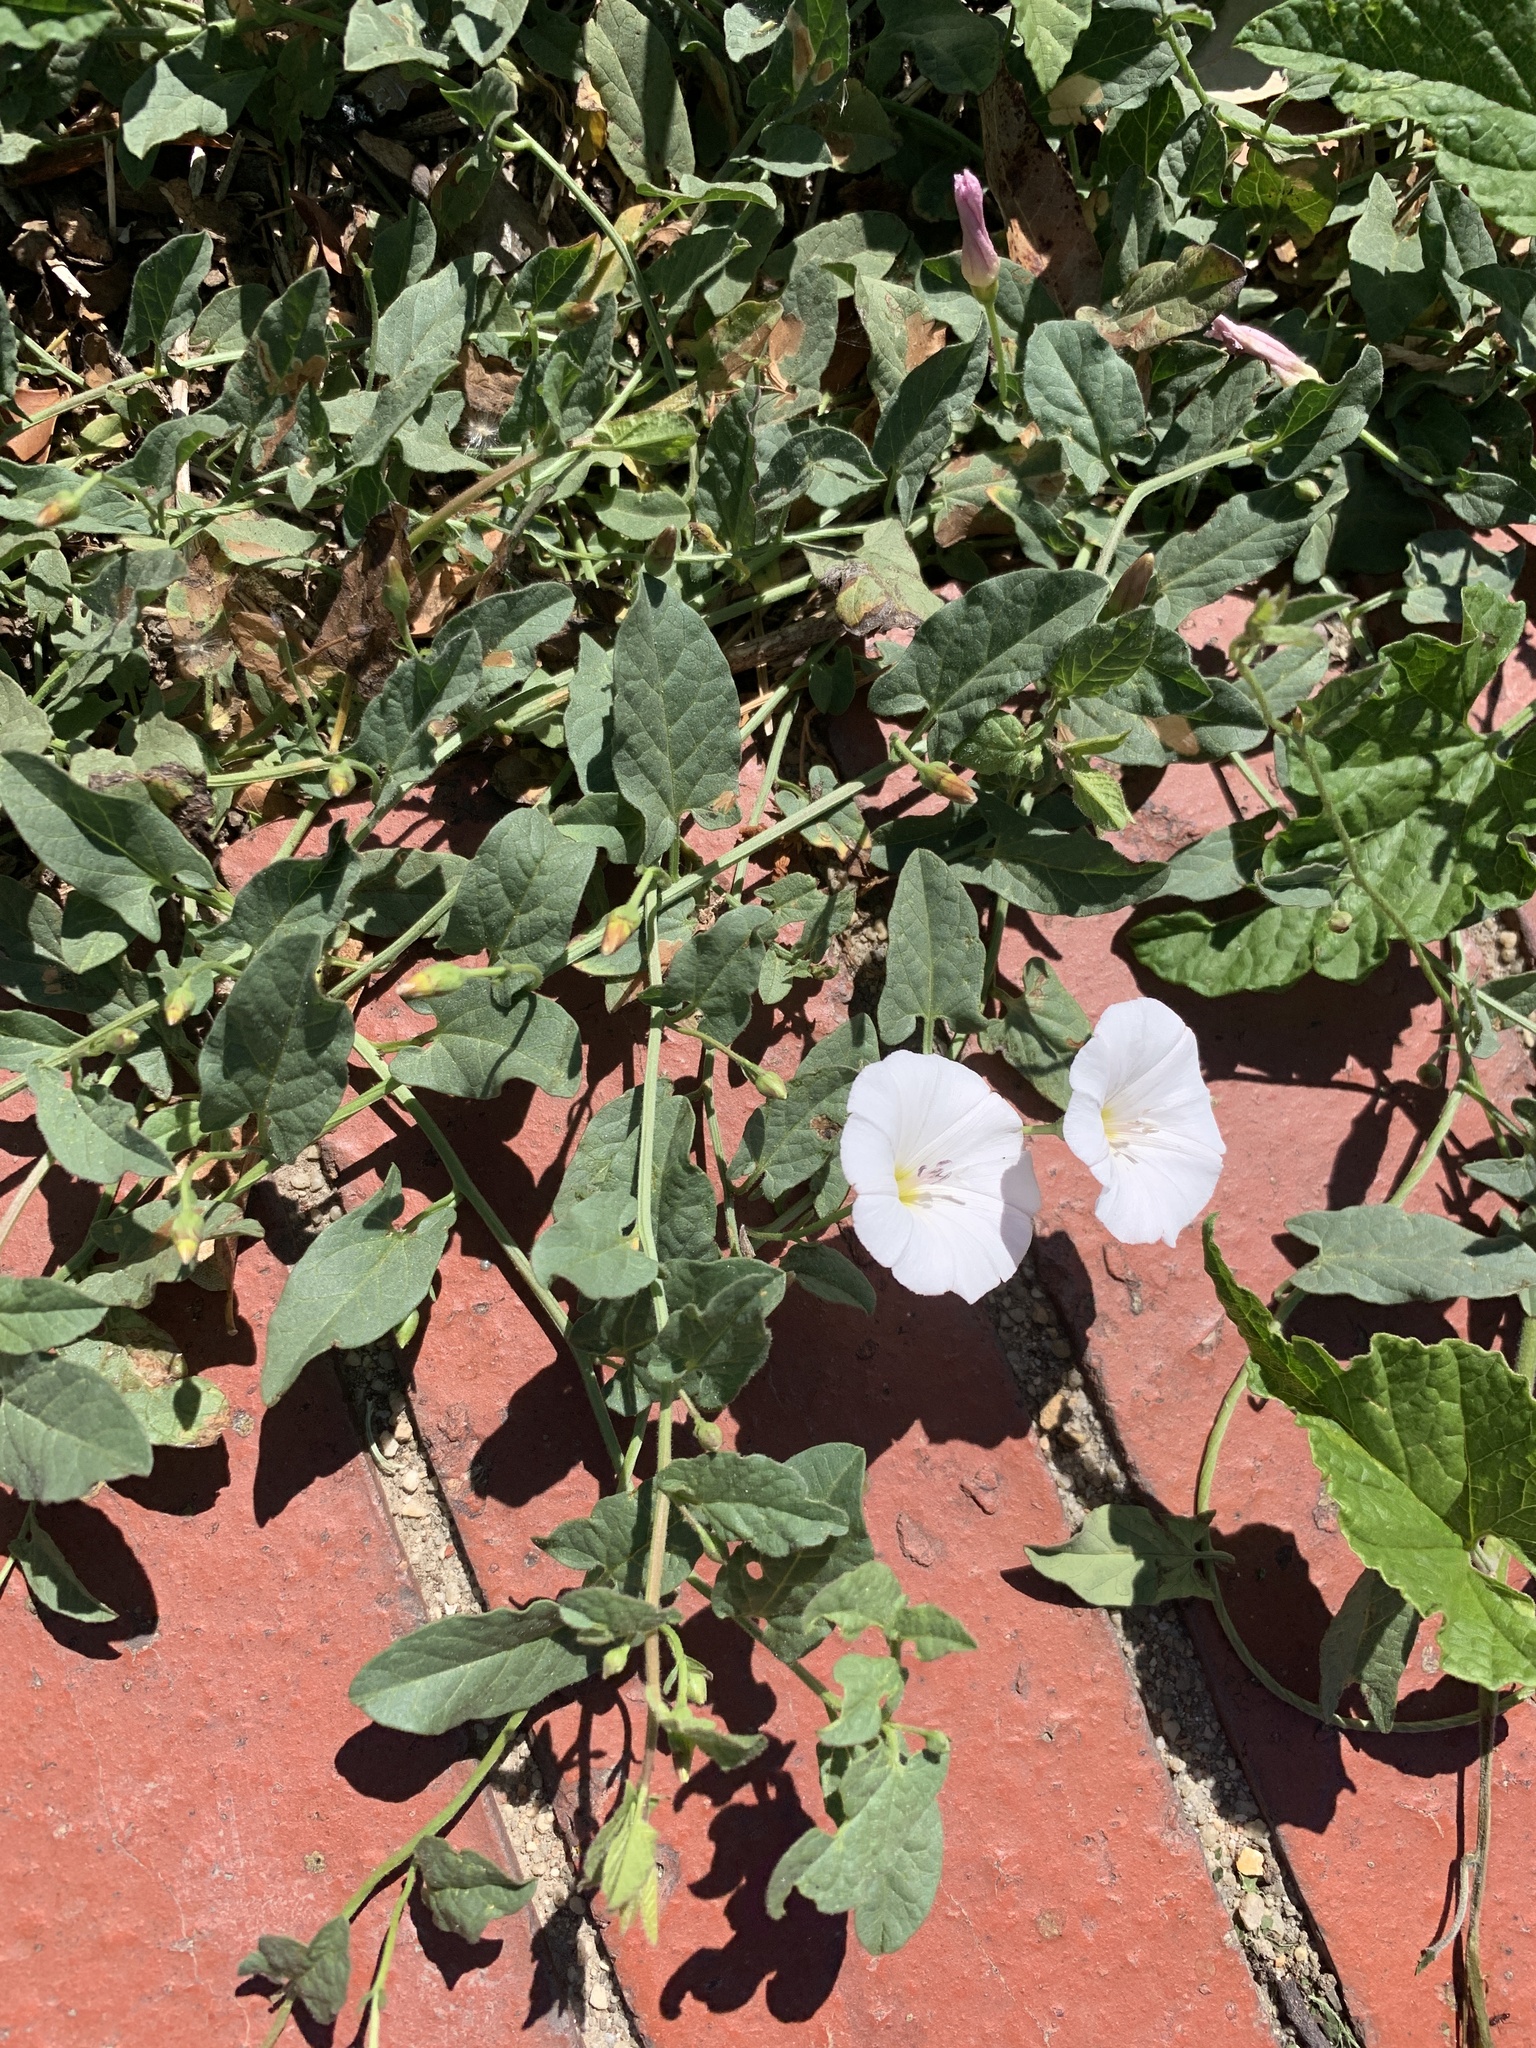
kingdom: Plantae
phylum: Tracheophyta
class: Magnoliopsida
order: Solanales
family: Convolvulaceae
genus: Convolvulus
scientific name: Convolvulus arvensis
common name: Field bindweed
